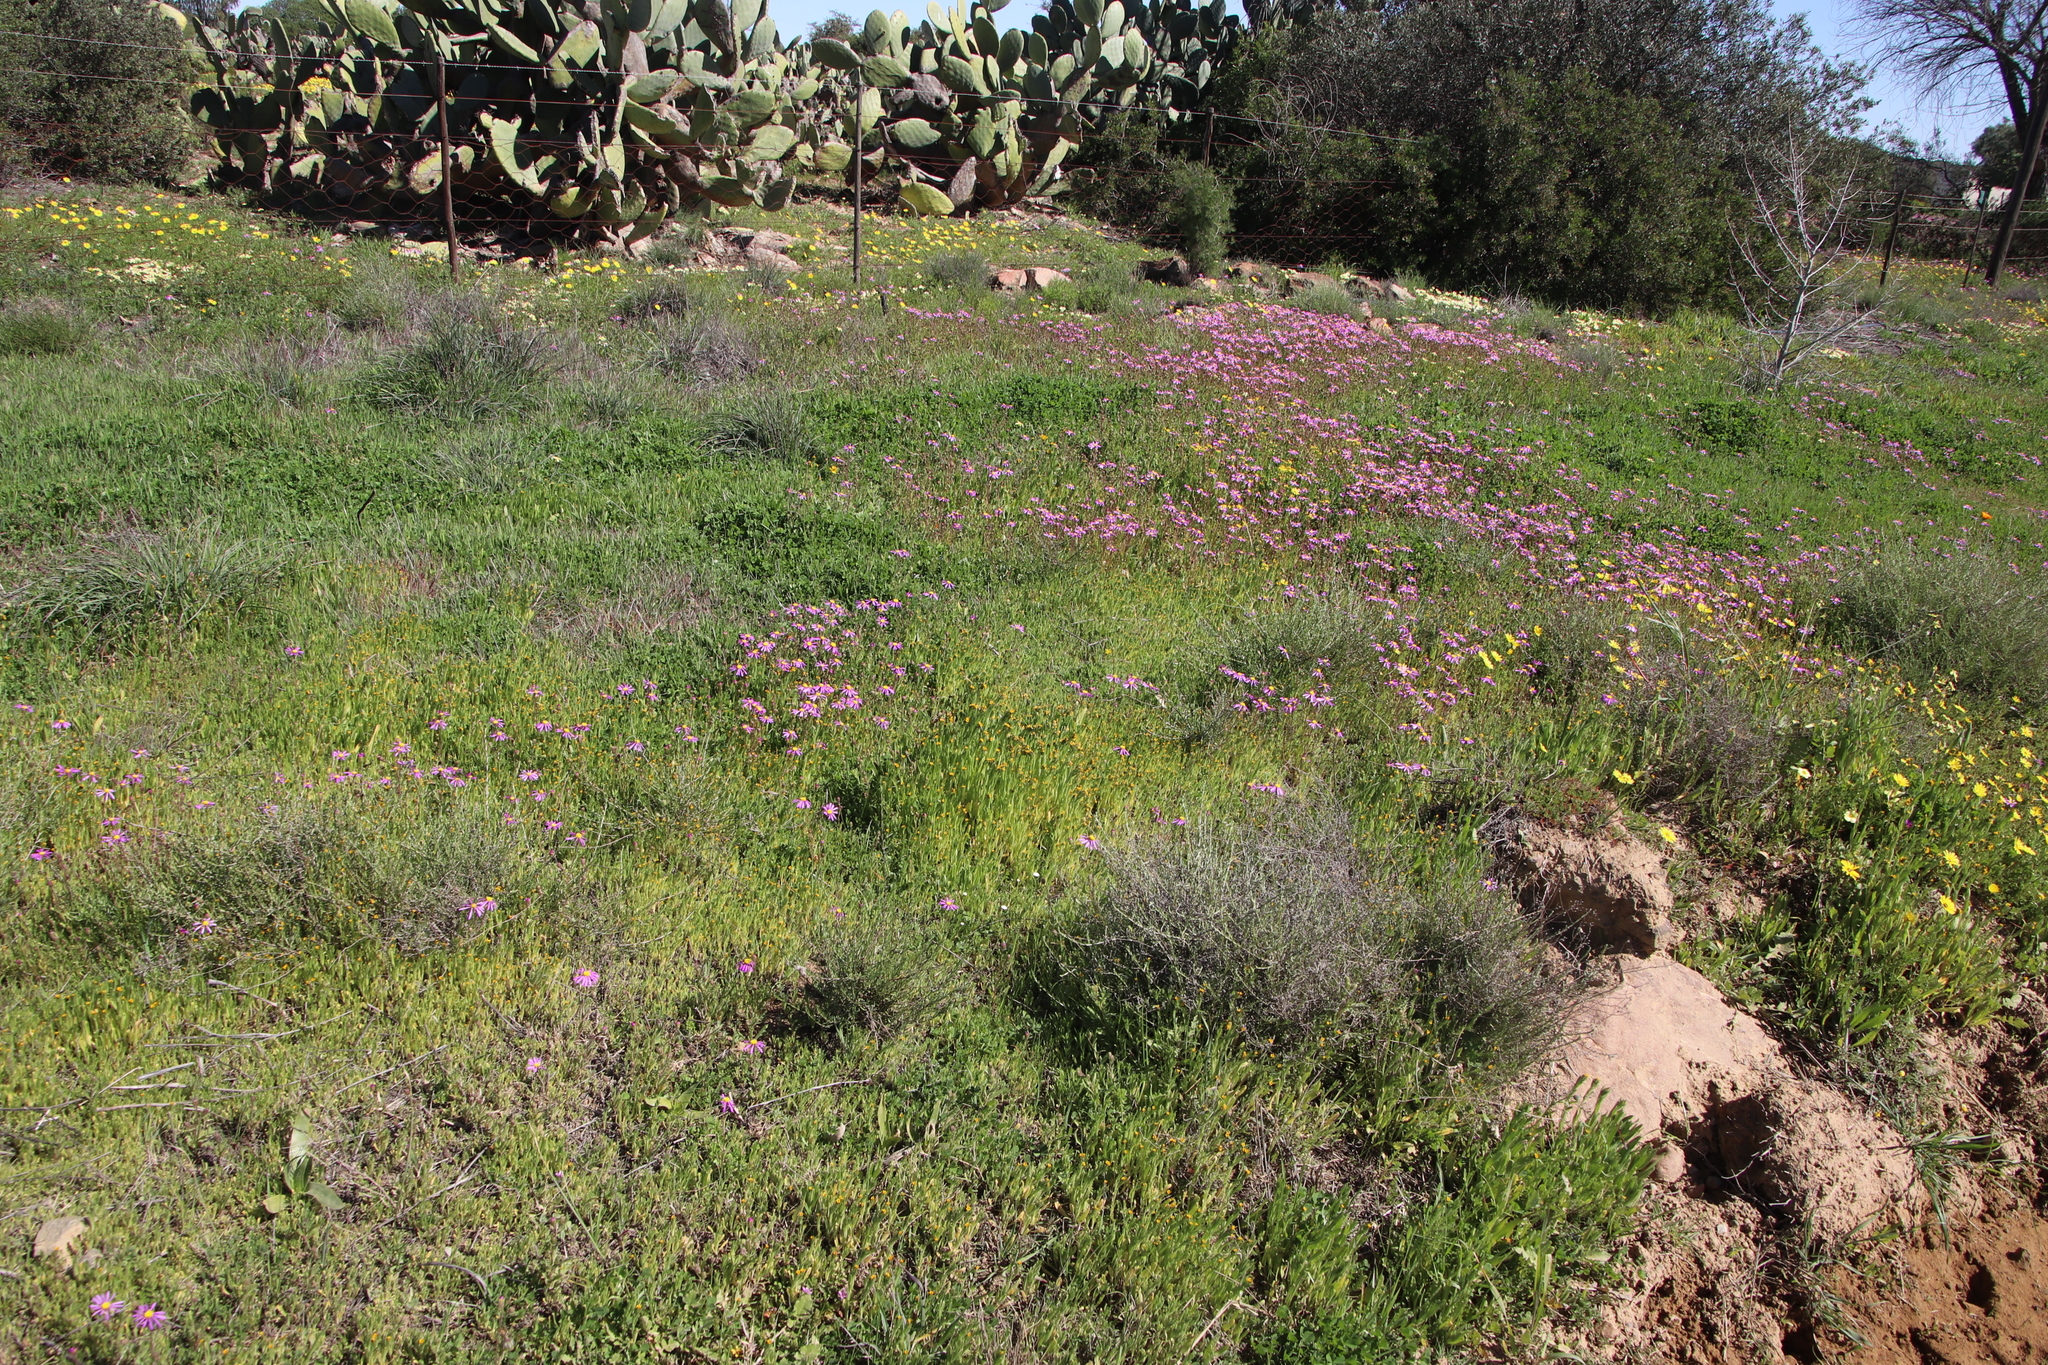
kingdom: Plantae
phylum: Tracheophyta
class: Magnoliopsida
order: Boraginales
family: Boraginaceae
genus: Amsinckia
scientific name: Amsinckia menziesii
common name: Menzies' fiddleneck
